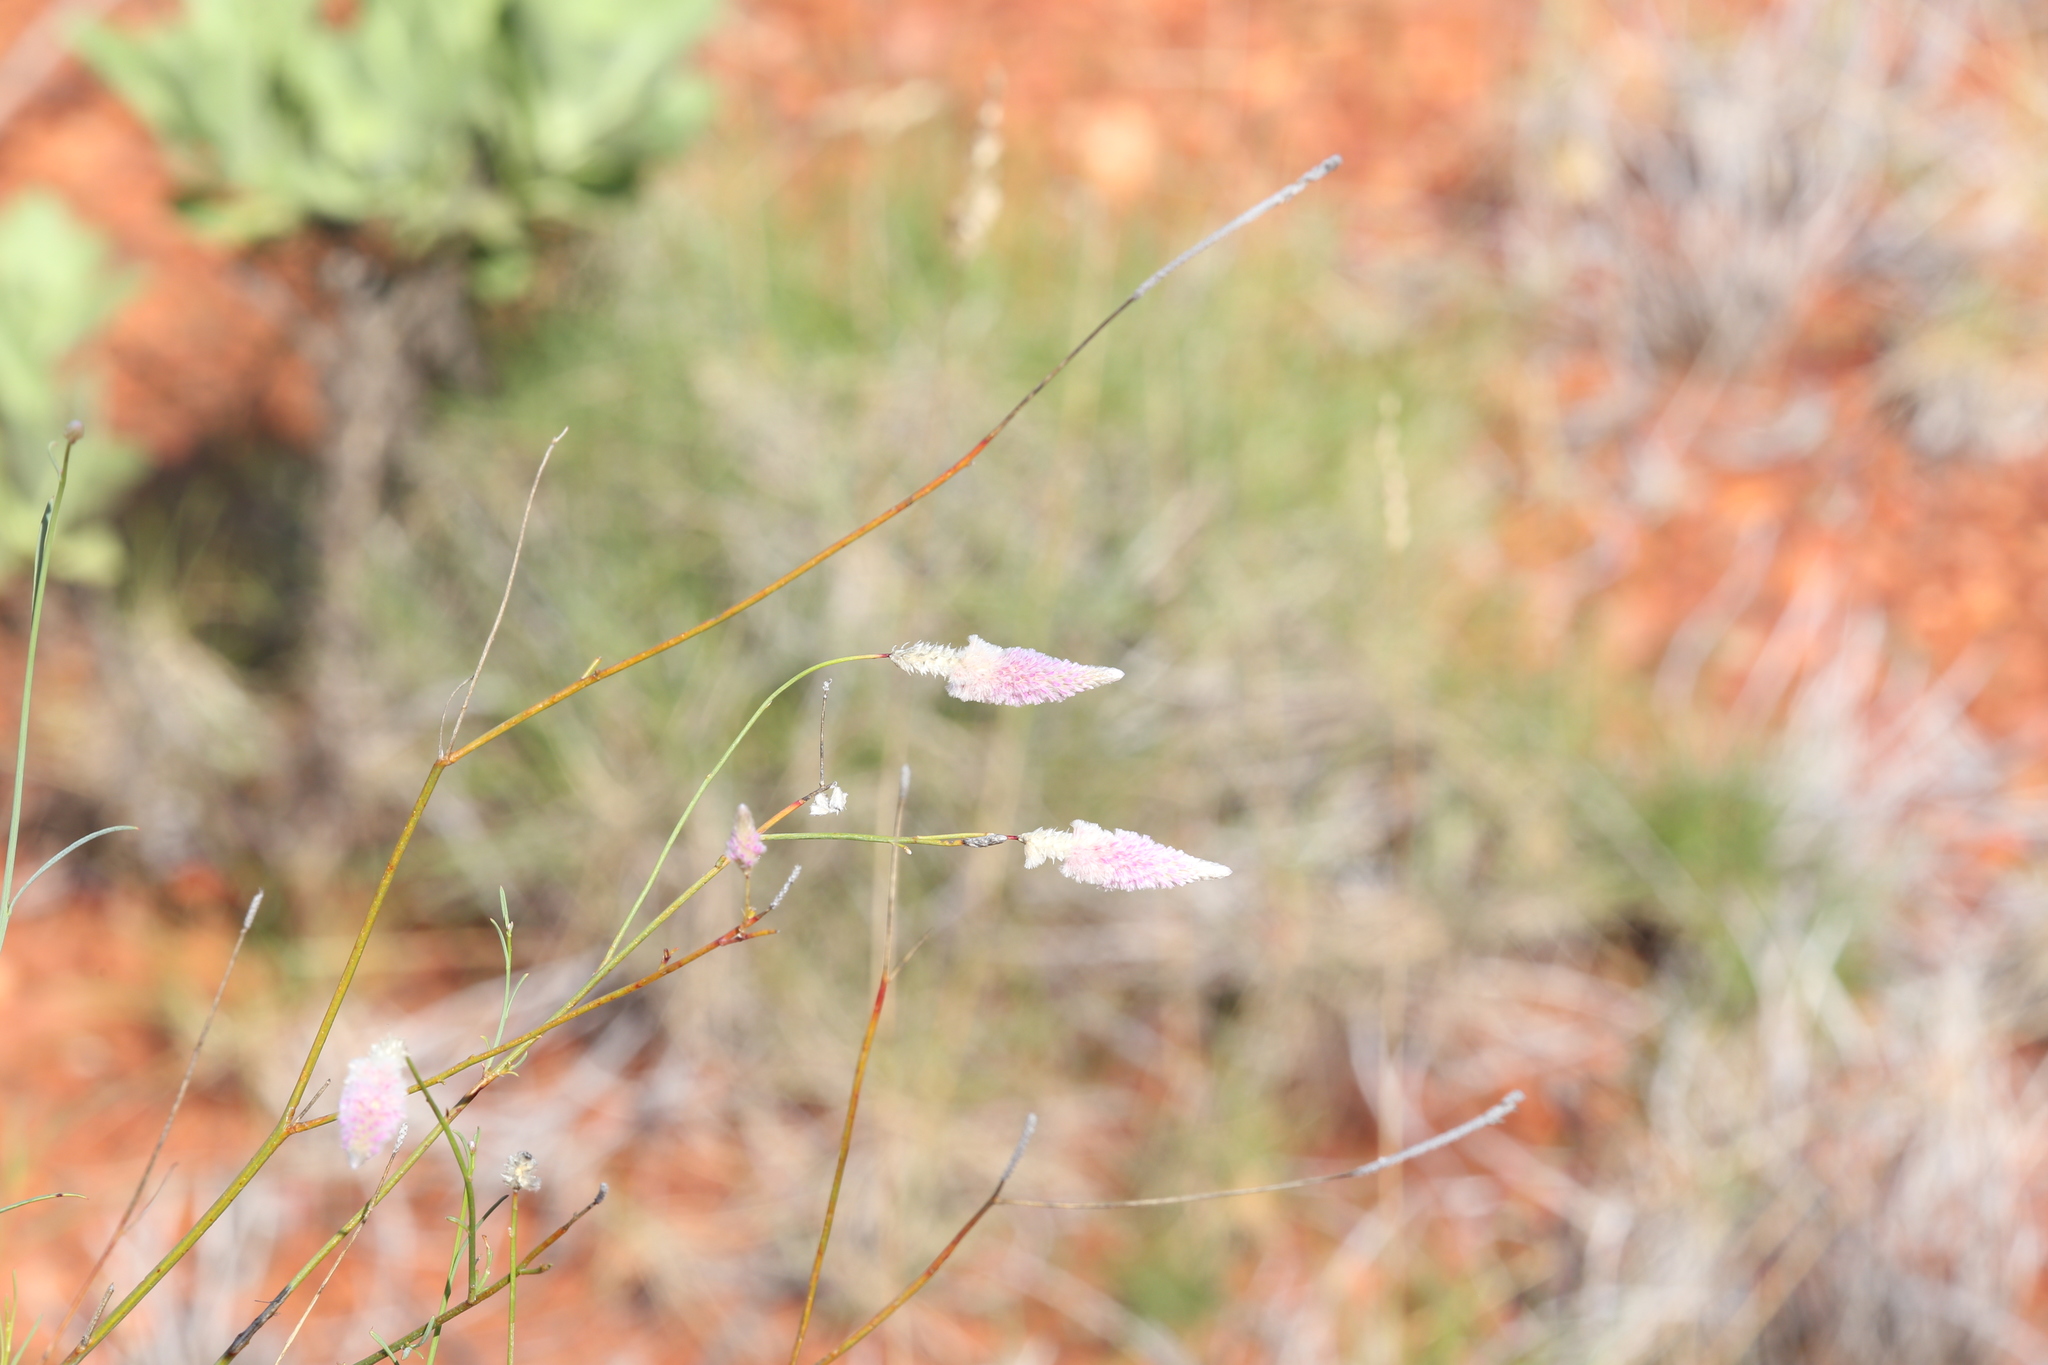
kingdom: Plantae
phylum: Tracheophyta
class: Magnoliopsida
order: Caryophyllales
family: Amaranthaceae
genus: Ptilotus
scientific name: Ptilotus calostachyus
